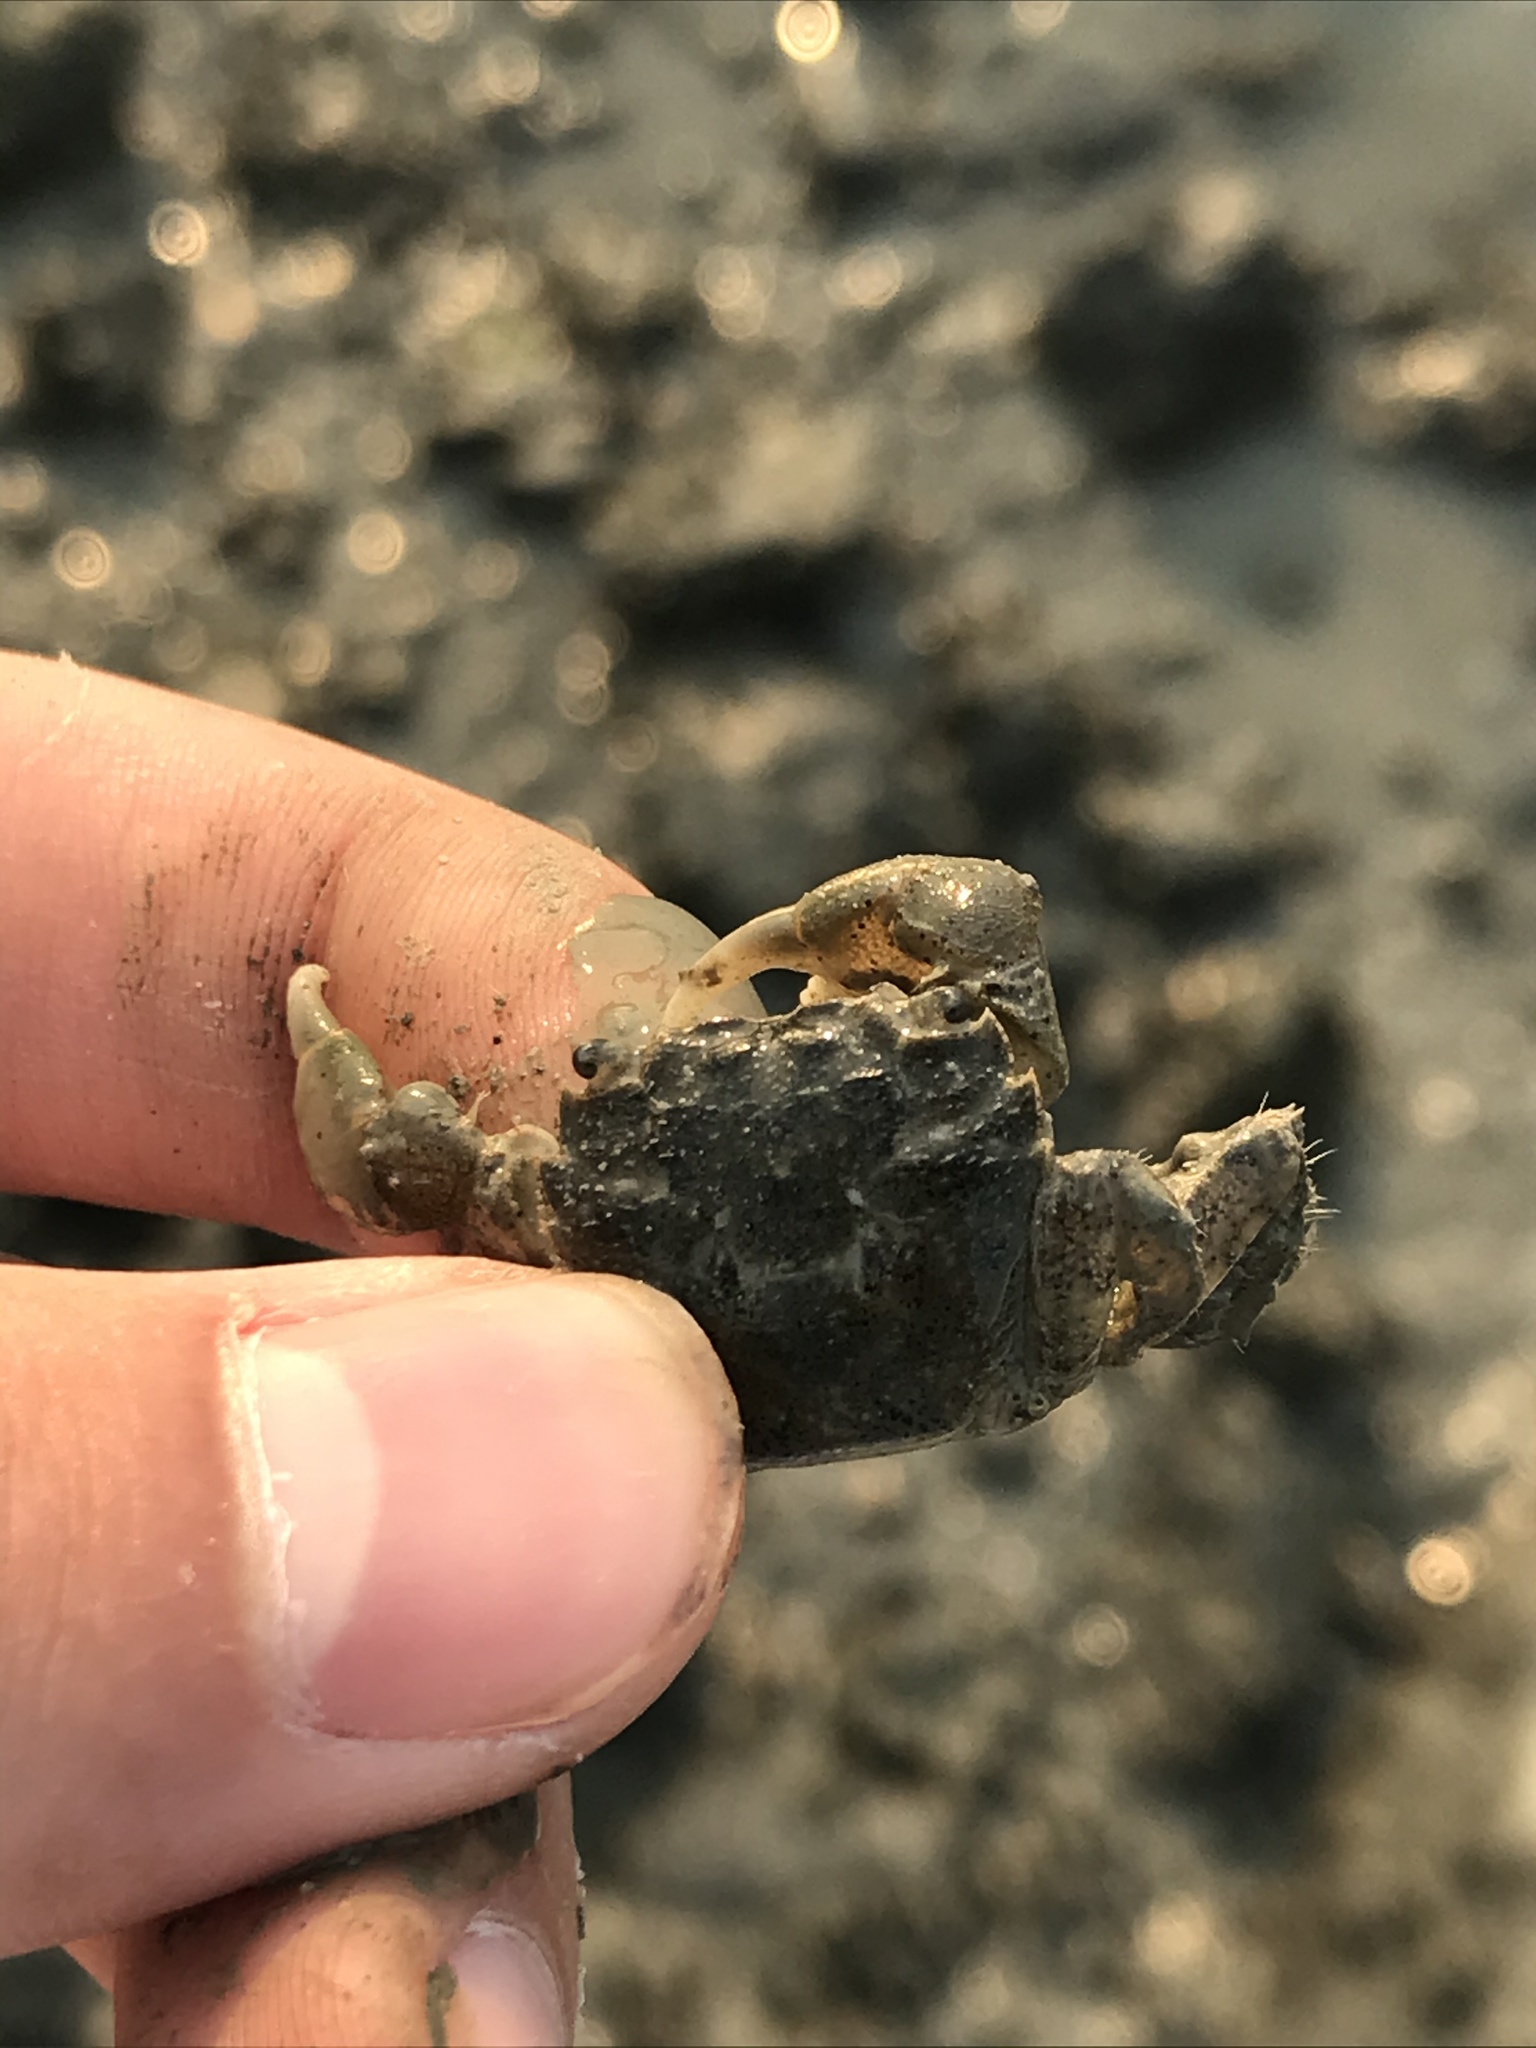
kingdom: Animalia
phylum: Arthropoda
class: Malacostraca
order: Decapoda
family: Varunidae
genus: Hemigrapsus
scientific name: Hemigrapsus oregonensis
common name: Yellow shore crab
